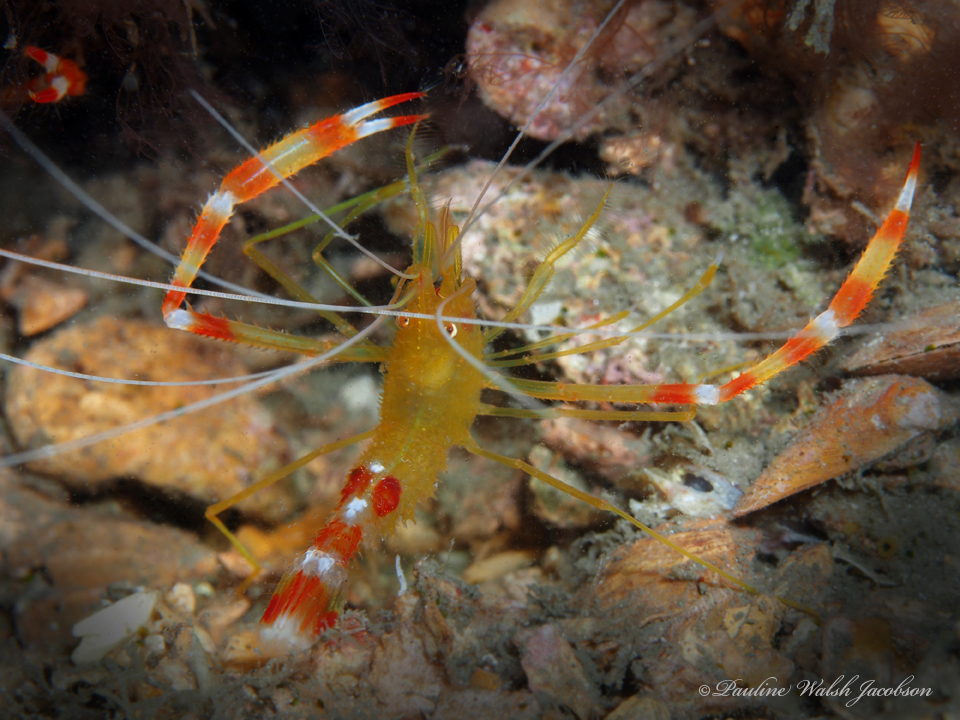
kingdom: Animalia
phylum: Arthropoda
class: Malacostraca
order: Decapoda
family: Stenopodidae
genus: Stenopus
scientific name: Stenopus scutellatus
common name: Golden coral shrimp
